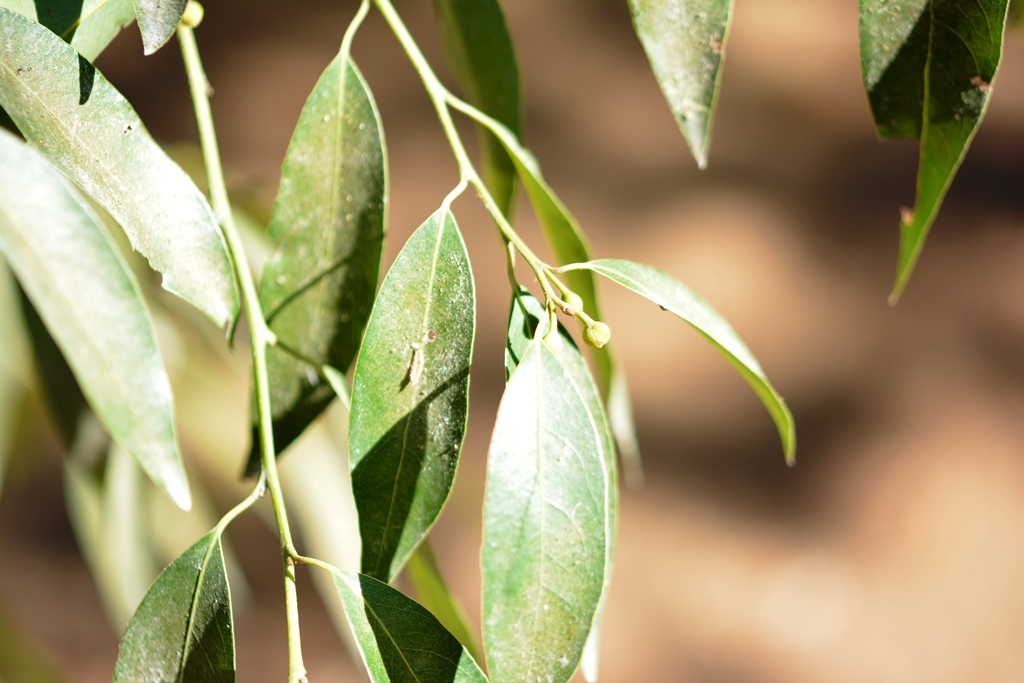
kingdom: Plantae
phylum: Tracheophyta
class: Magnoliopsida
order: Laurales
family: Lauraceae
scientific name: Lauraceae
